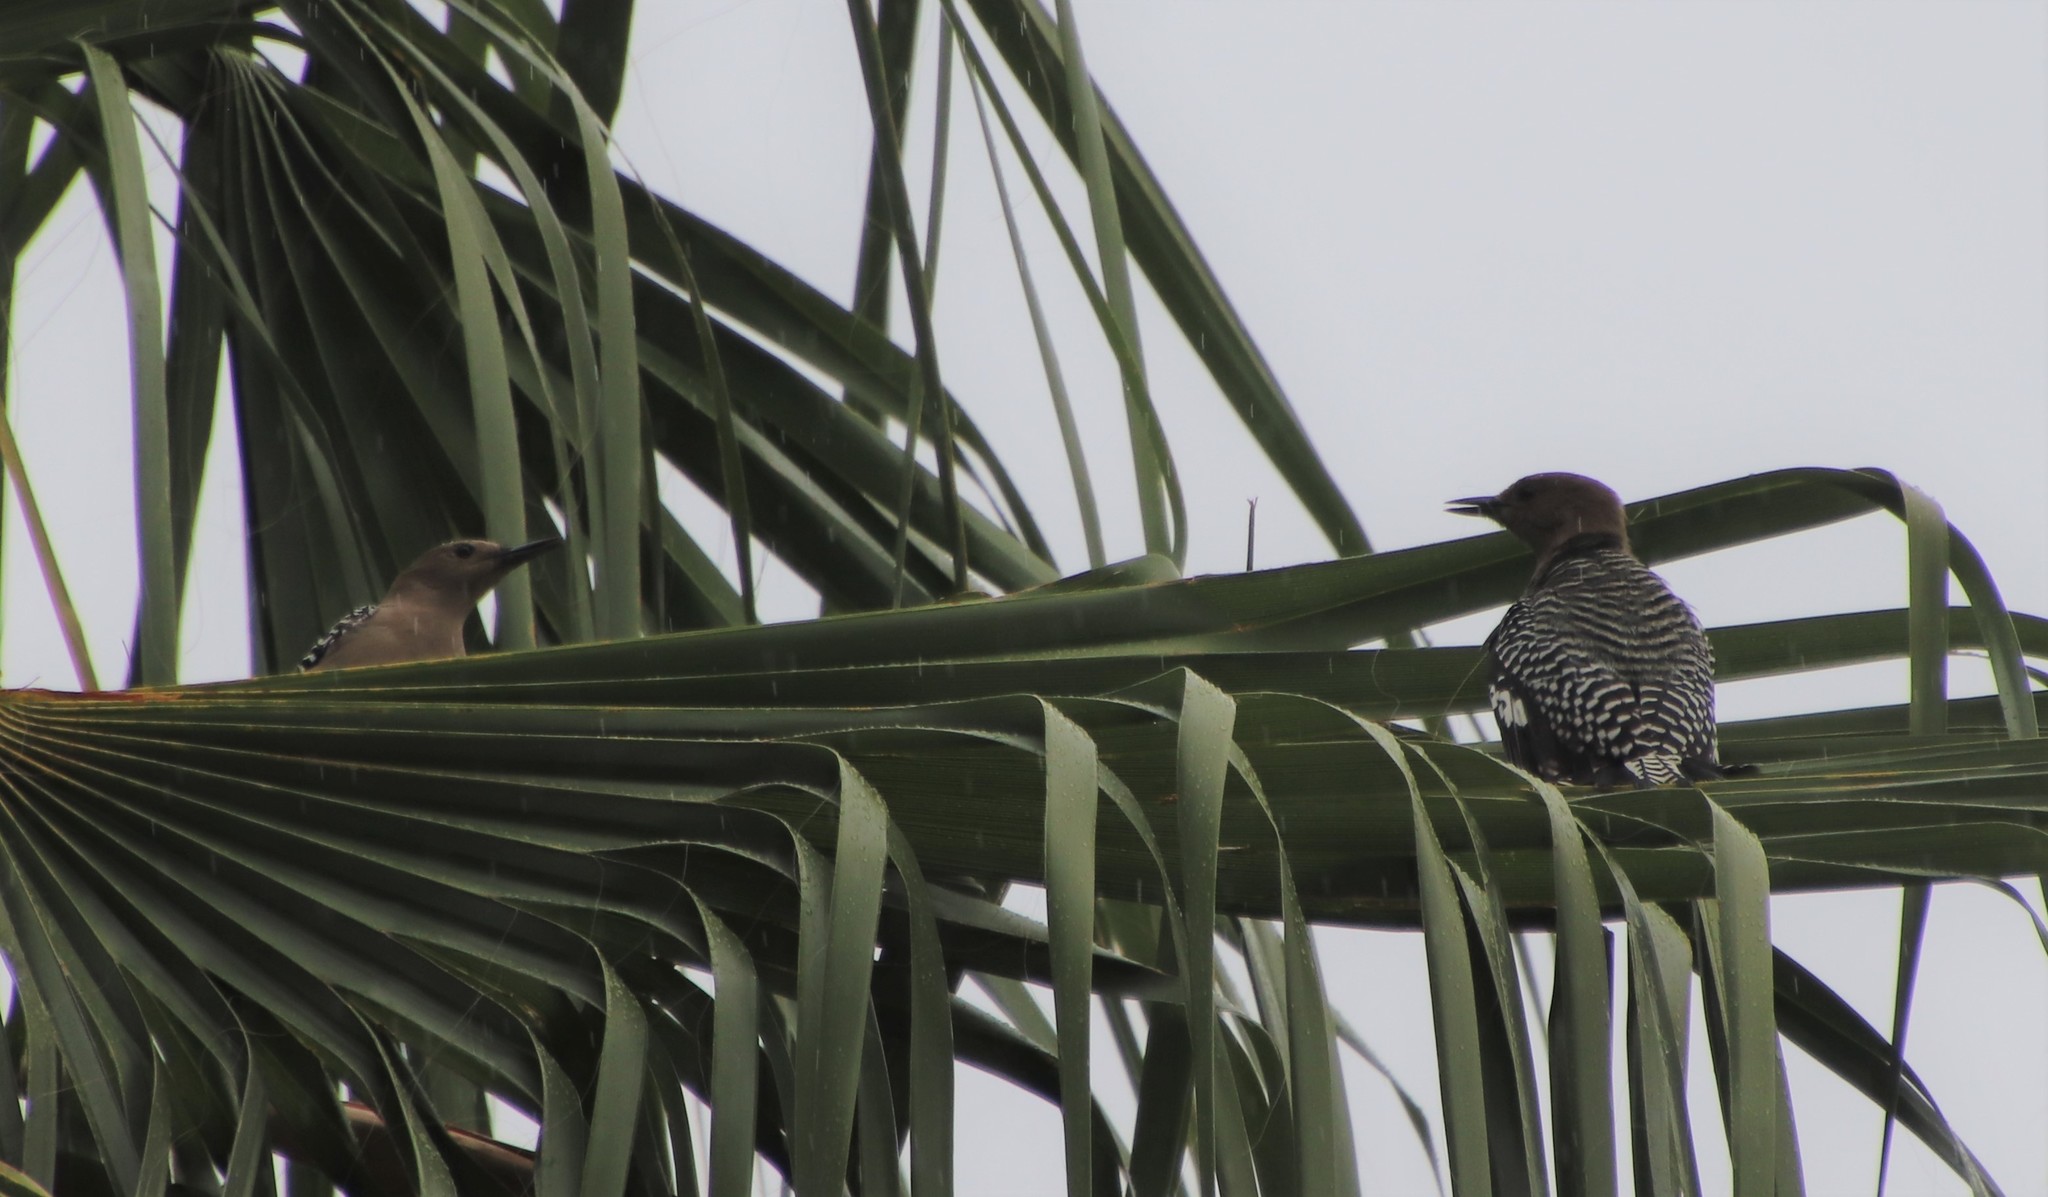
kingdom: Animalia
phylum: Chordata
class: Aves
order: Piciformes
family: Picidae
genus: Melanerpes
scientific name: Melanerpes uropygialis
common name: Gila woodpecker
